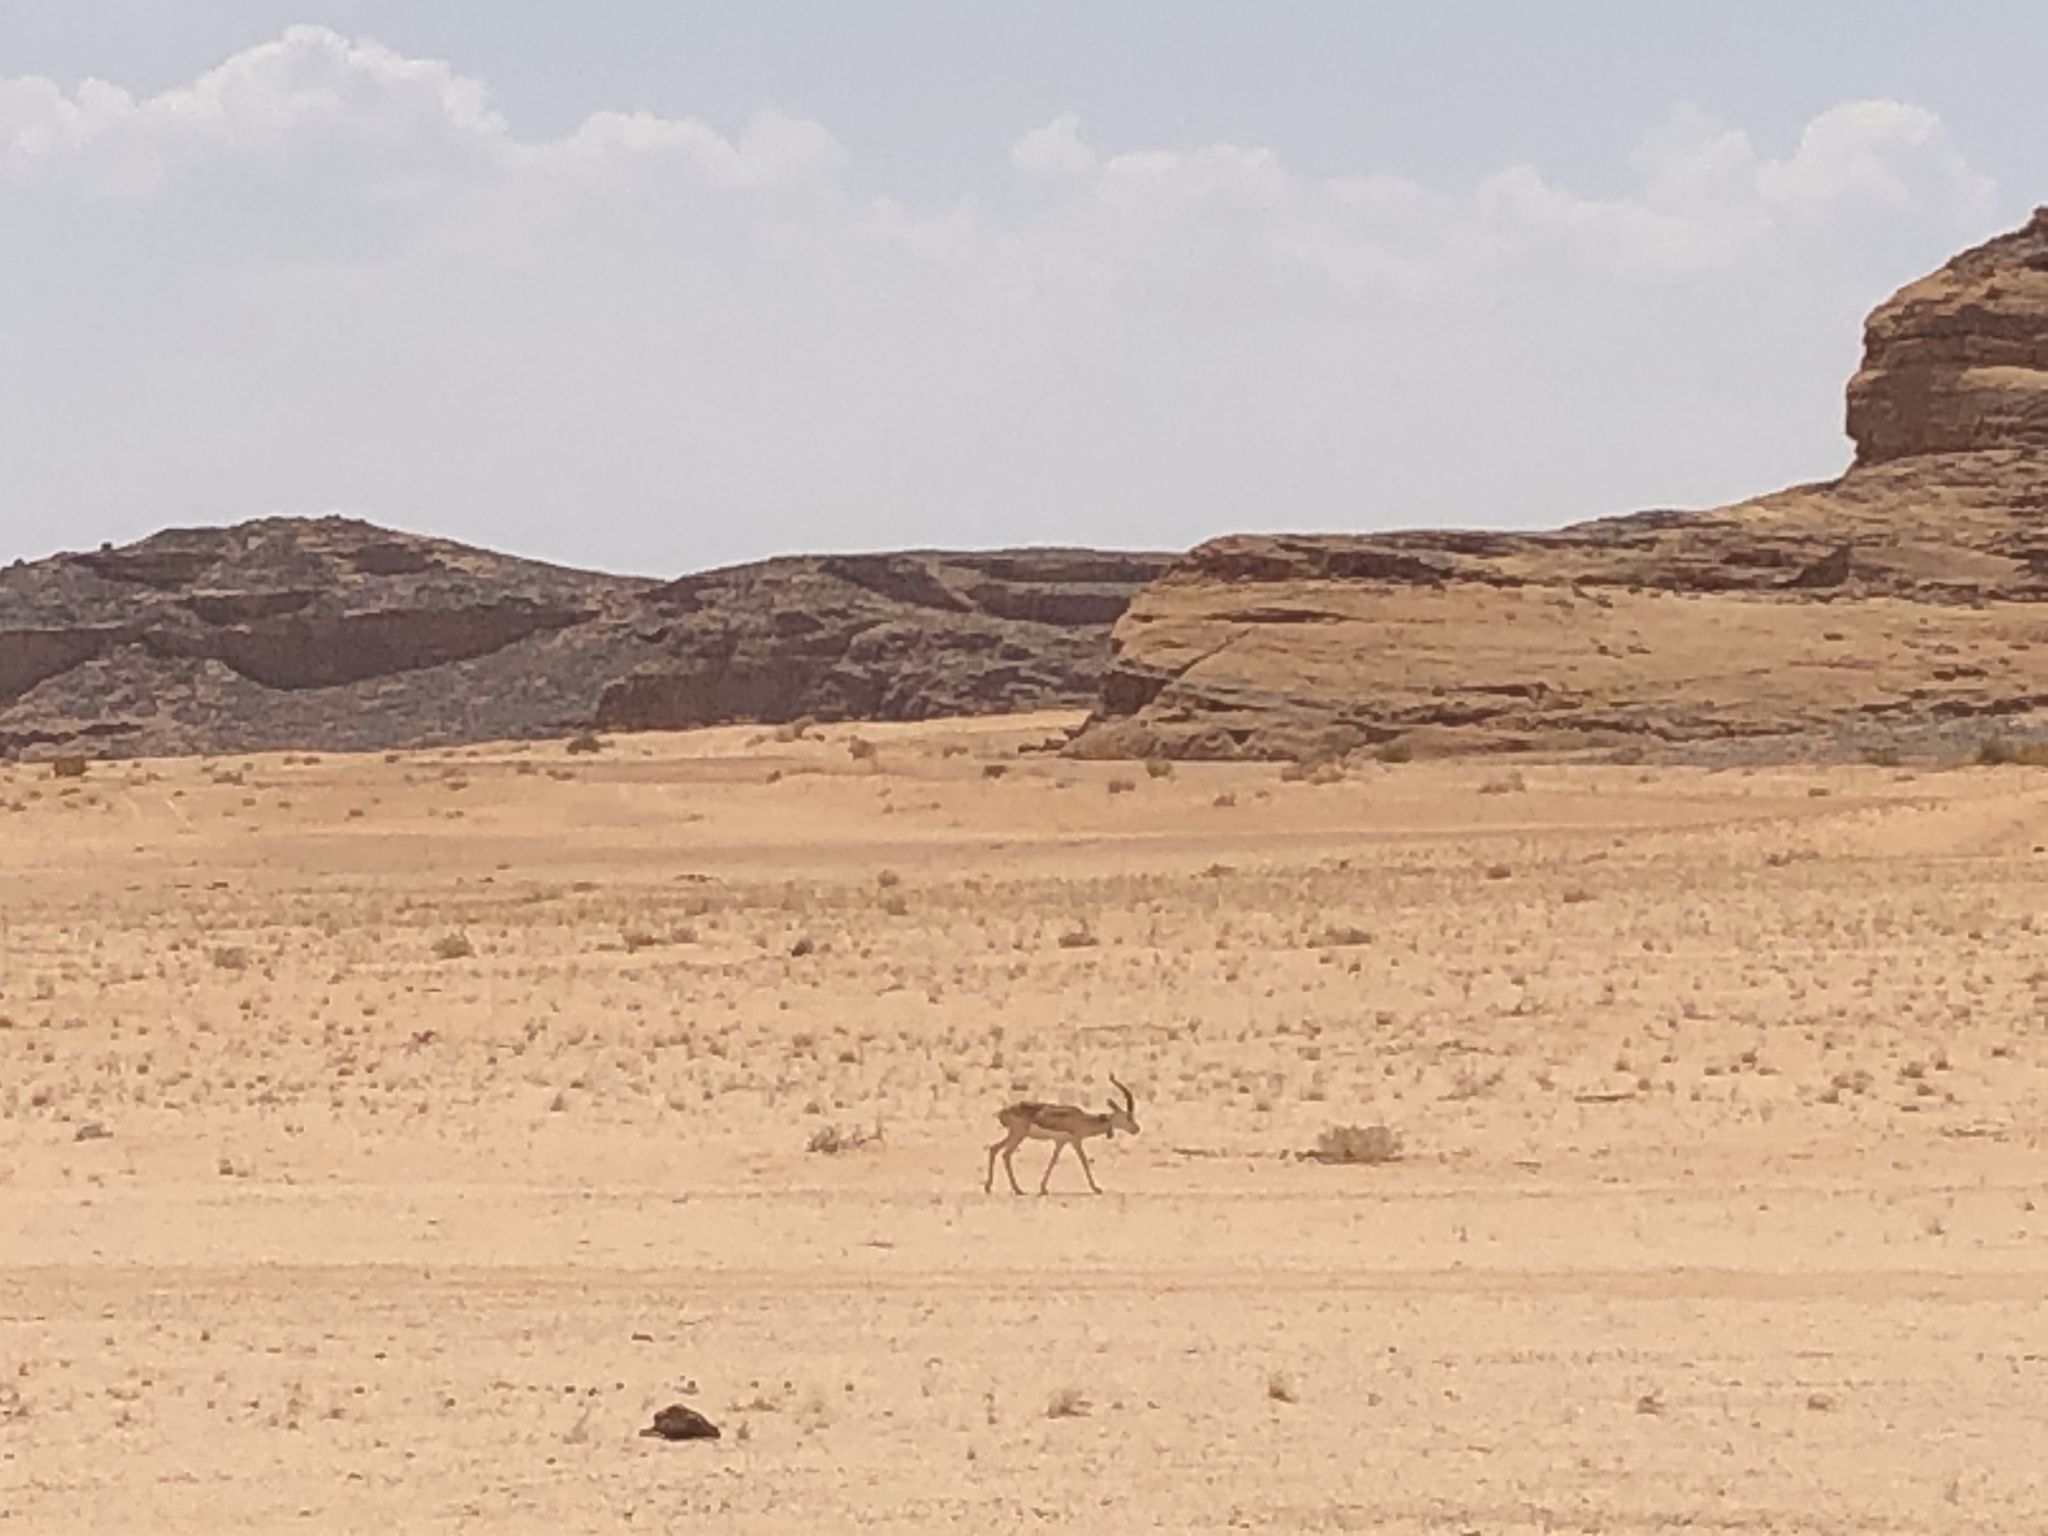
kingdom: Animalia
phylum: Chordata
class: Mammalia
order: Artiodactyla
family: Bovidae
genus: Gazella
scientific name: Gazella marica
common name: Arabian sand gazelle
